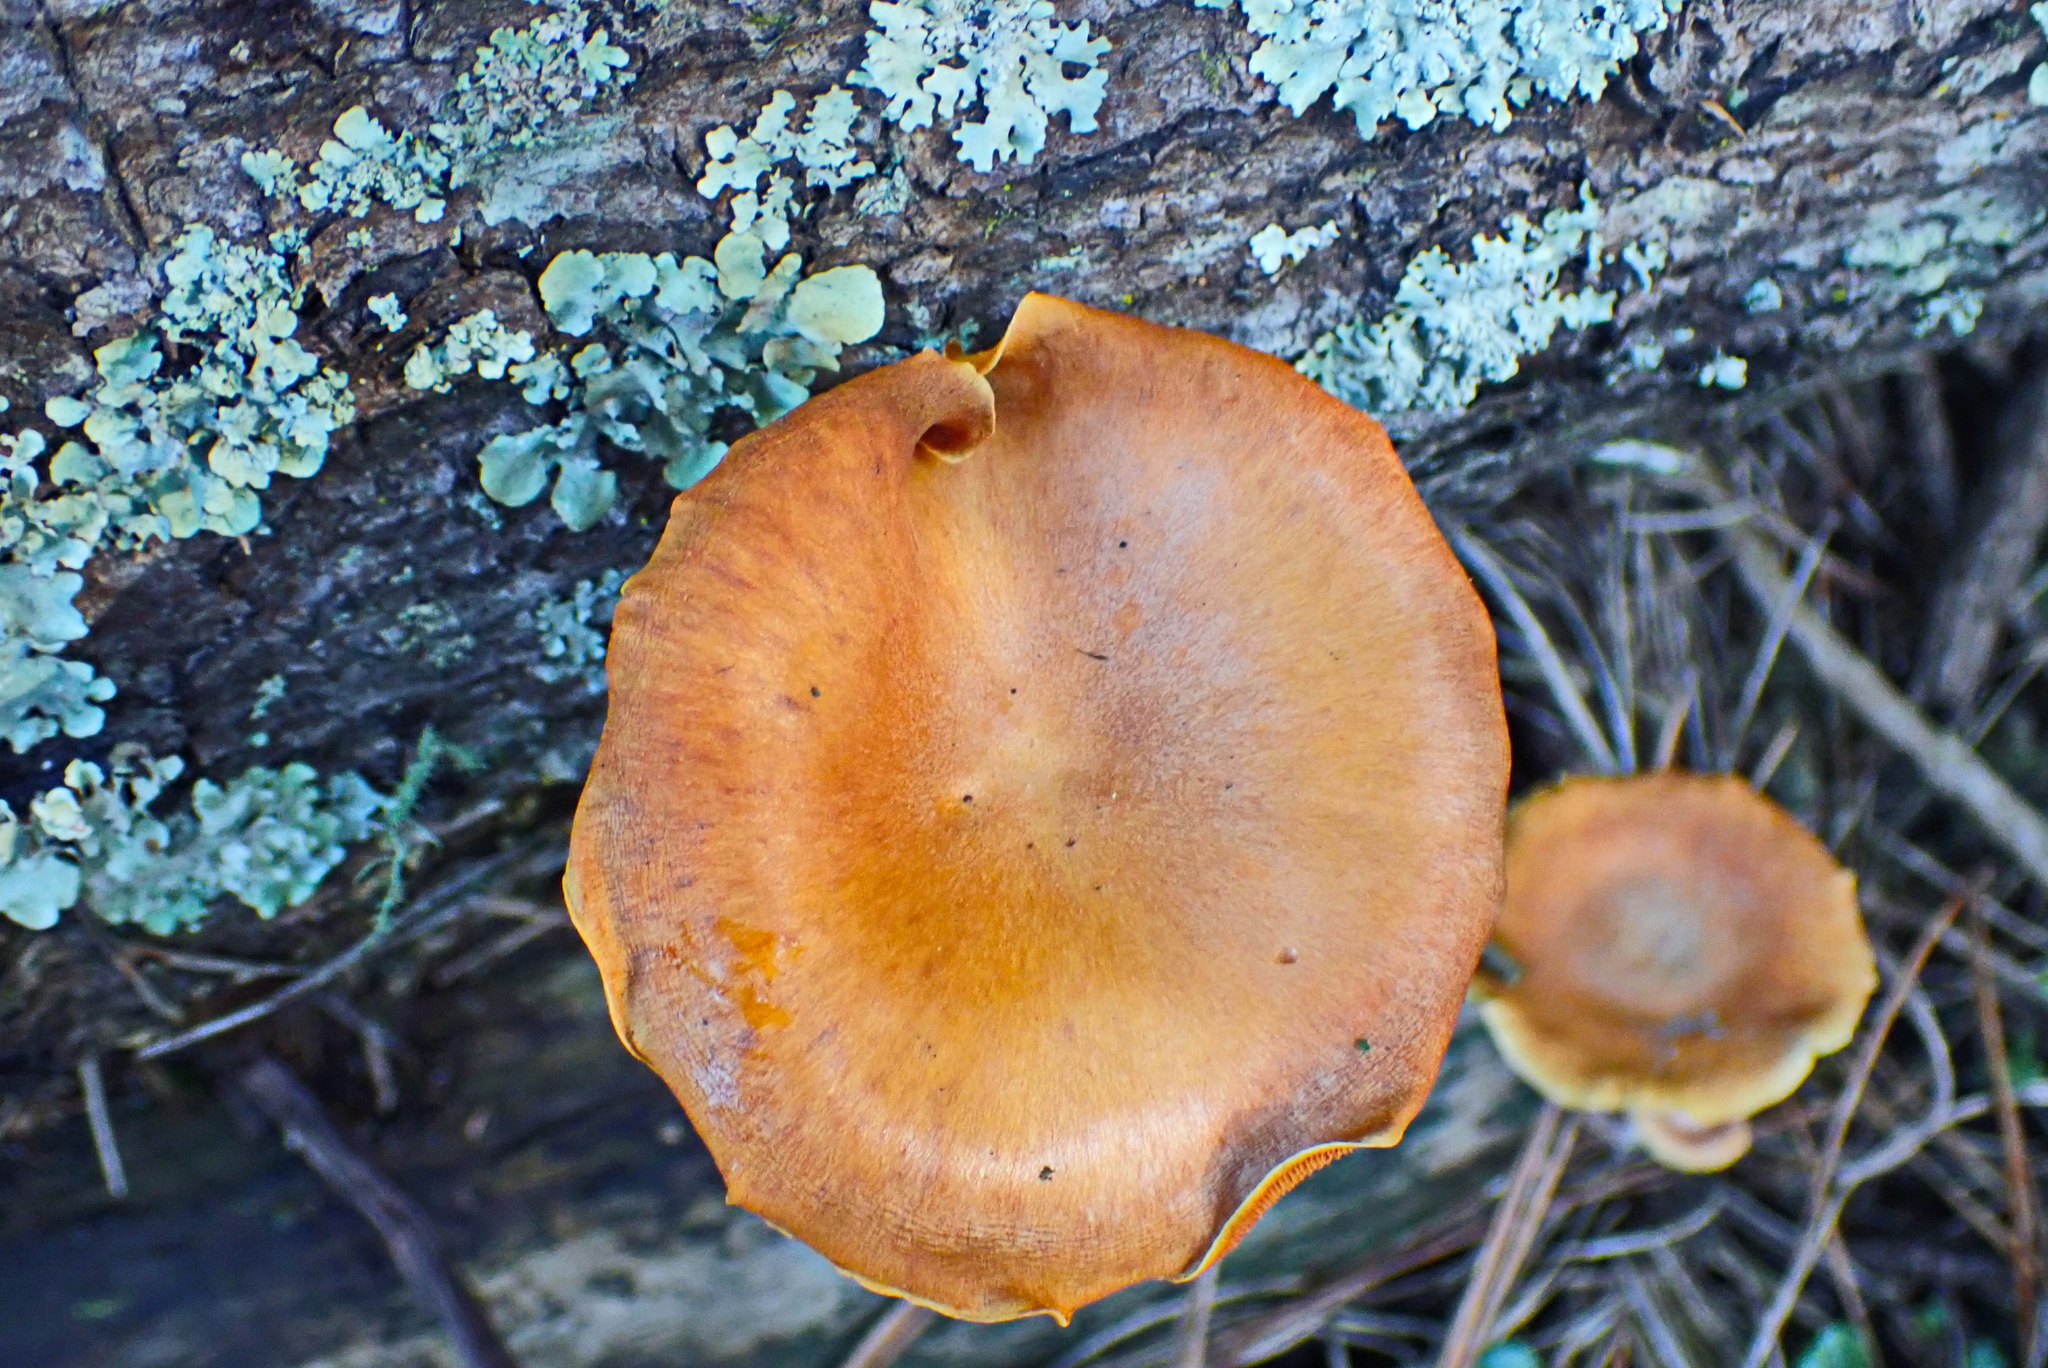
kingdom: Fungi
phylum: Basidiomycota
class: Agaricomycetes
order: Agaricales
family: Hymenogastraceae
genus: Gymnopilus
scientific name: Gymnopilus penetrans
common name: Common rustgill
